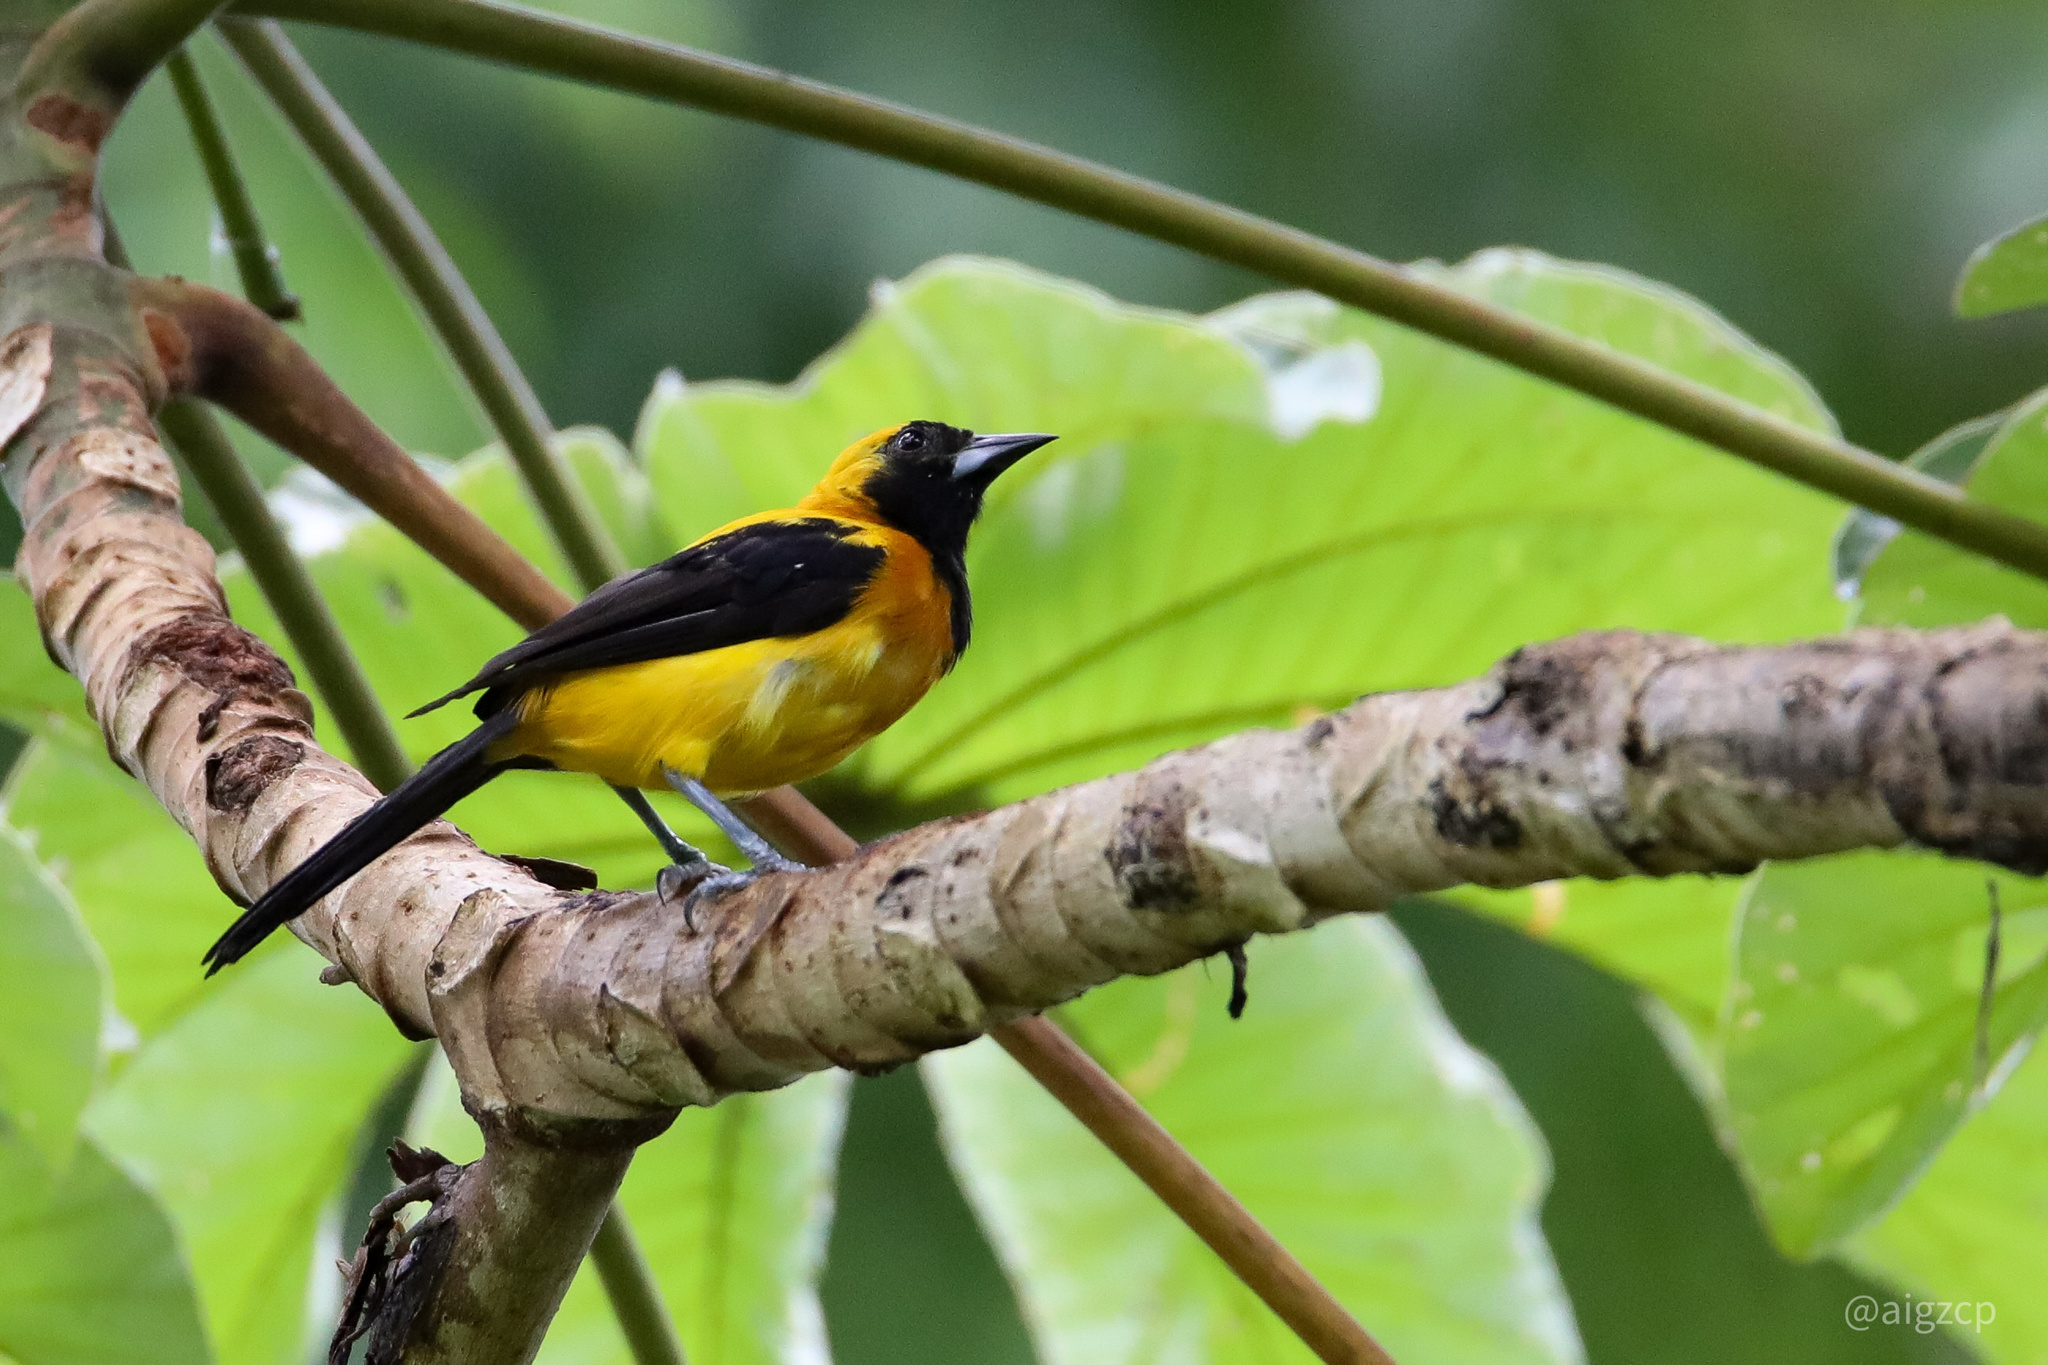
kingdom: Animalia
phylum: Chordata
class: Aves
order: Passeriformes
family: Icteridae
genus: Icterus
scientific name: Icterus chrysater
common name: Yellow-backed oriole
